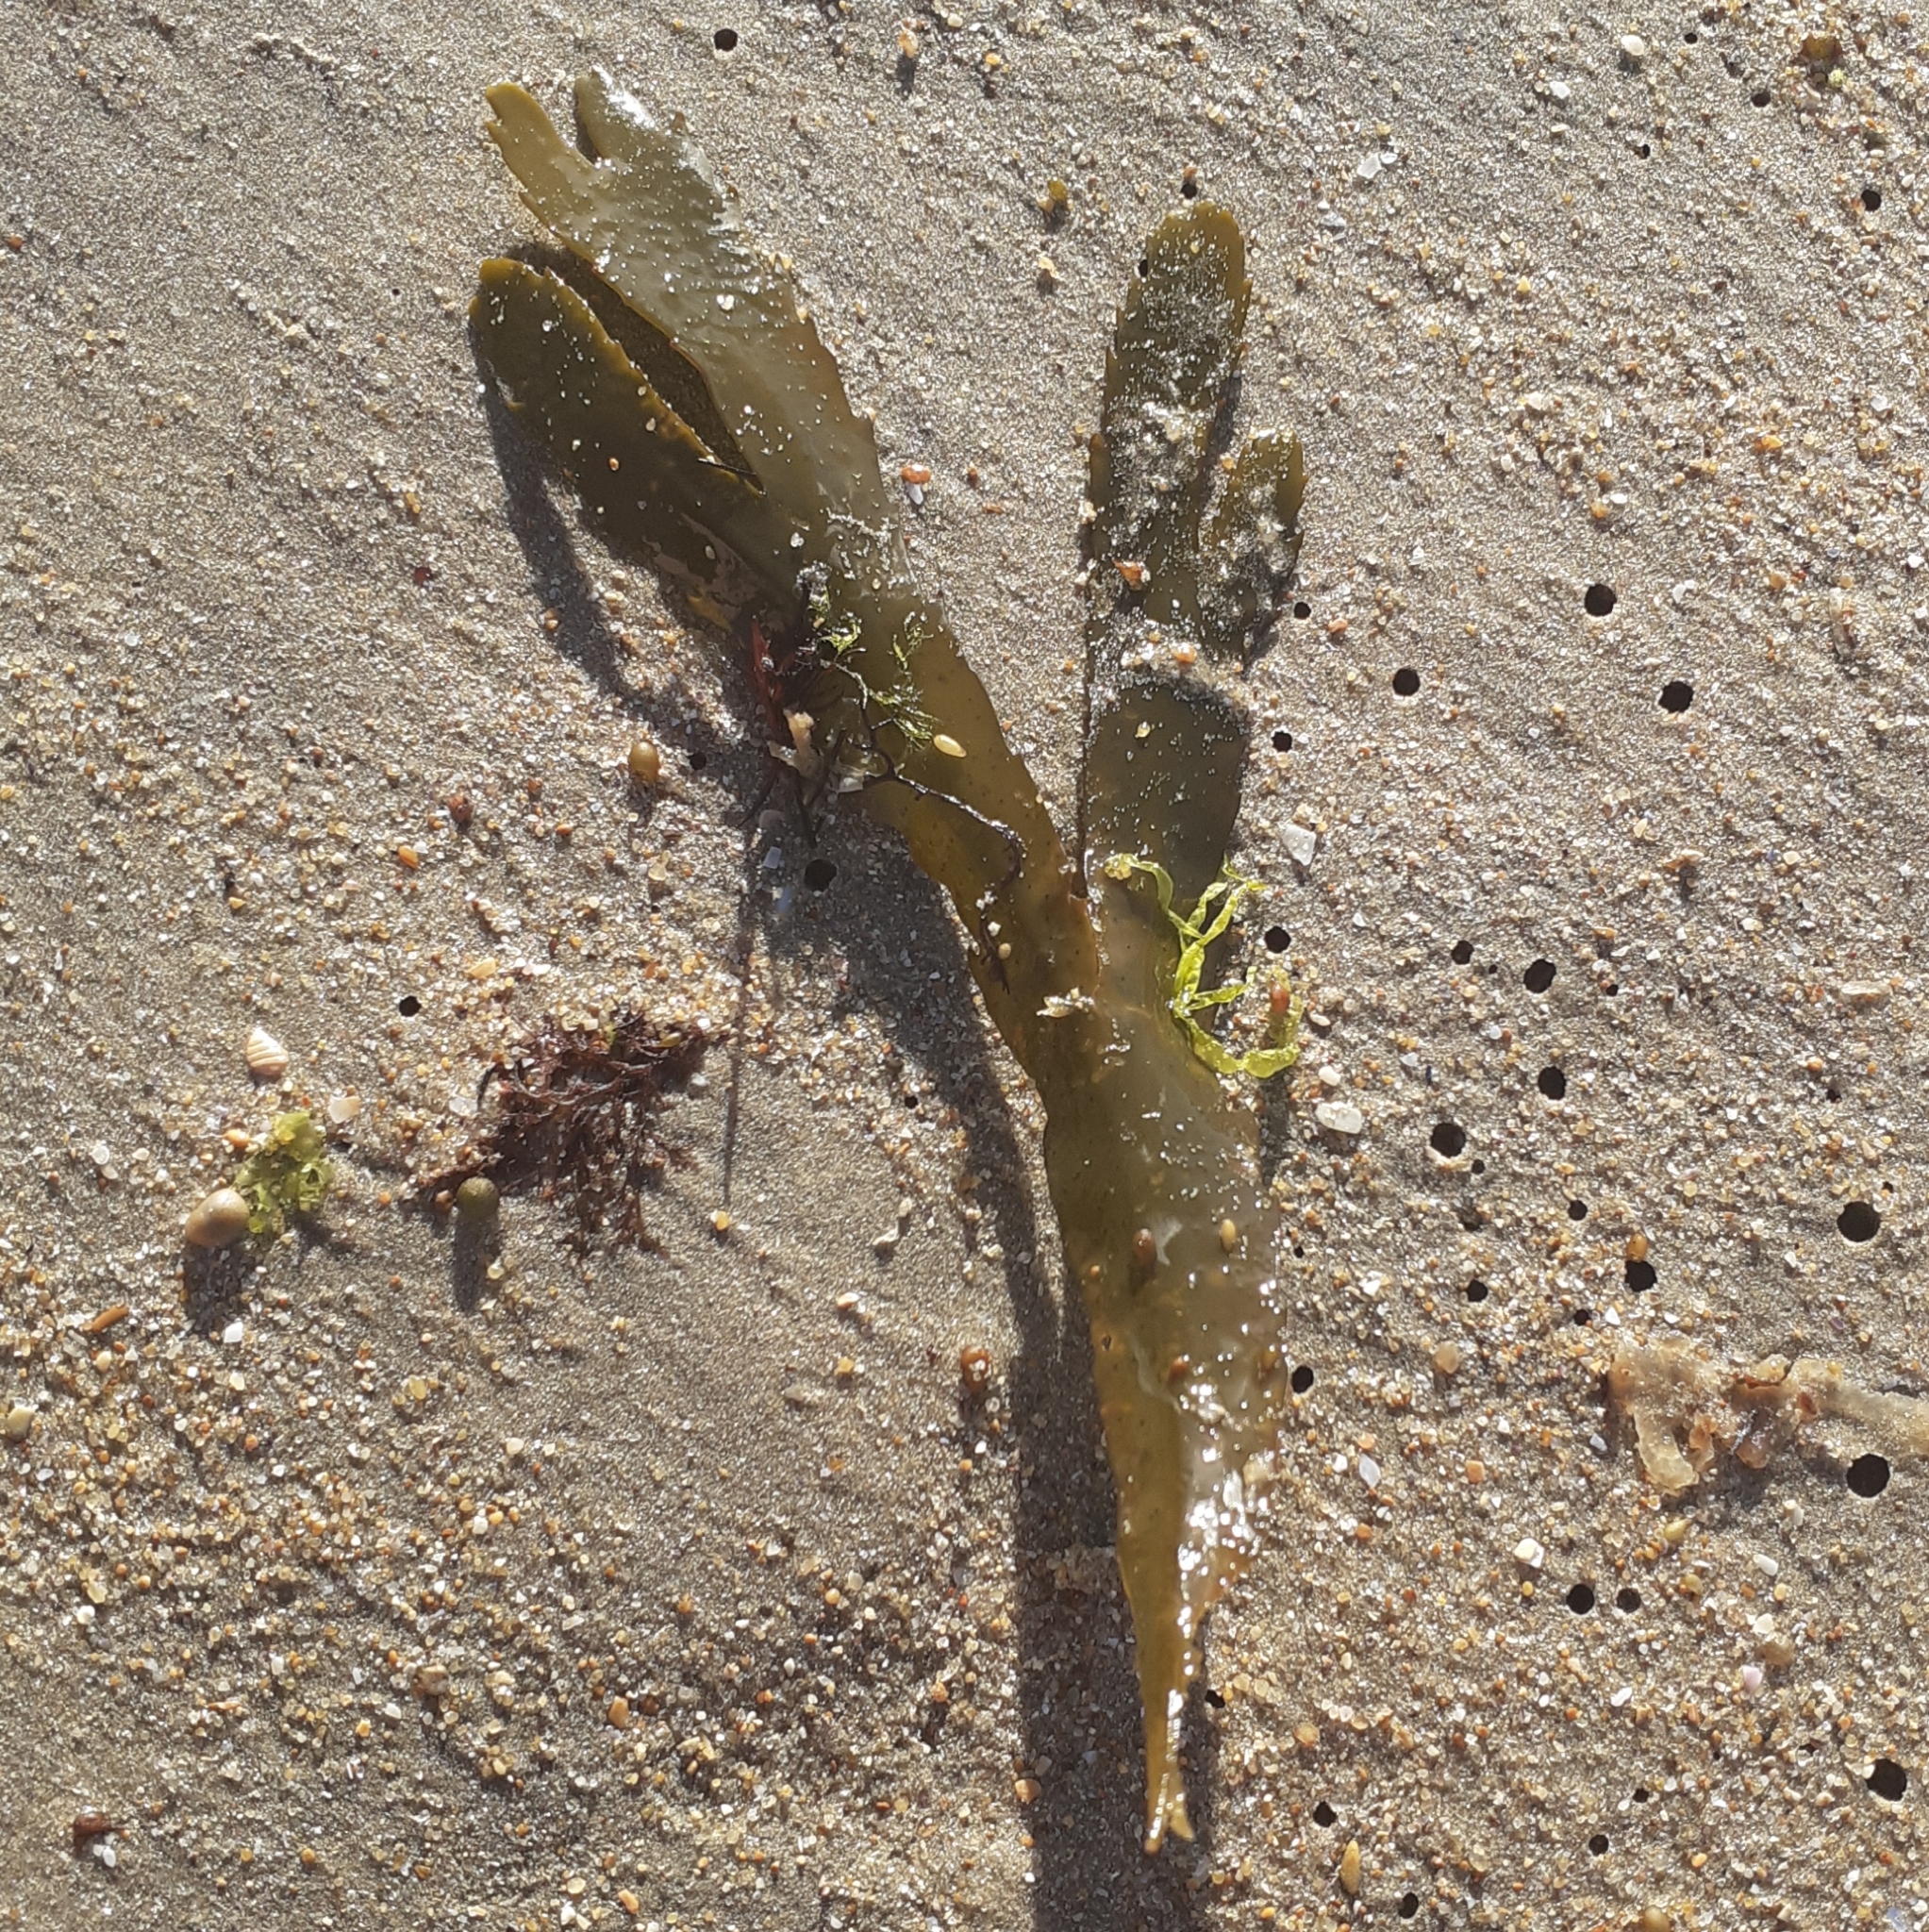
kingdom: Chromista
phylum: Ochrophyta
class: Phaeophyceae
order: Fucales
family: Fucaceae
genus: Fucus
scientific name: Fucus serratus
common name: Toothed wrack
